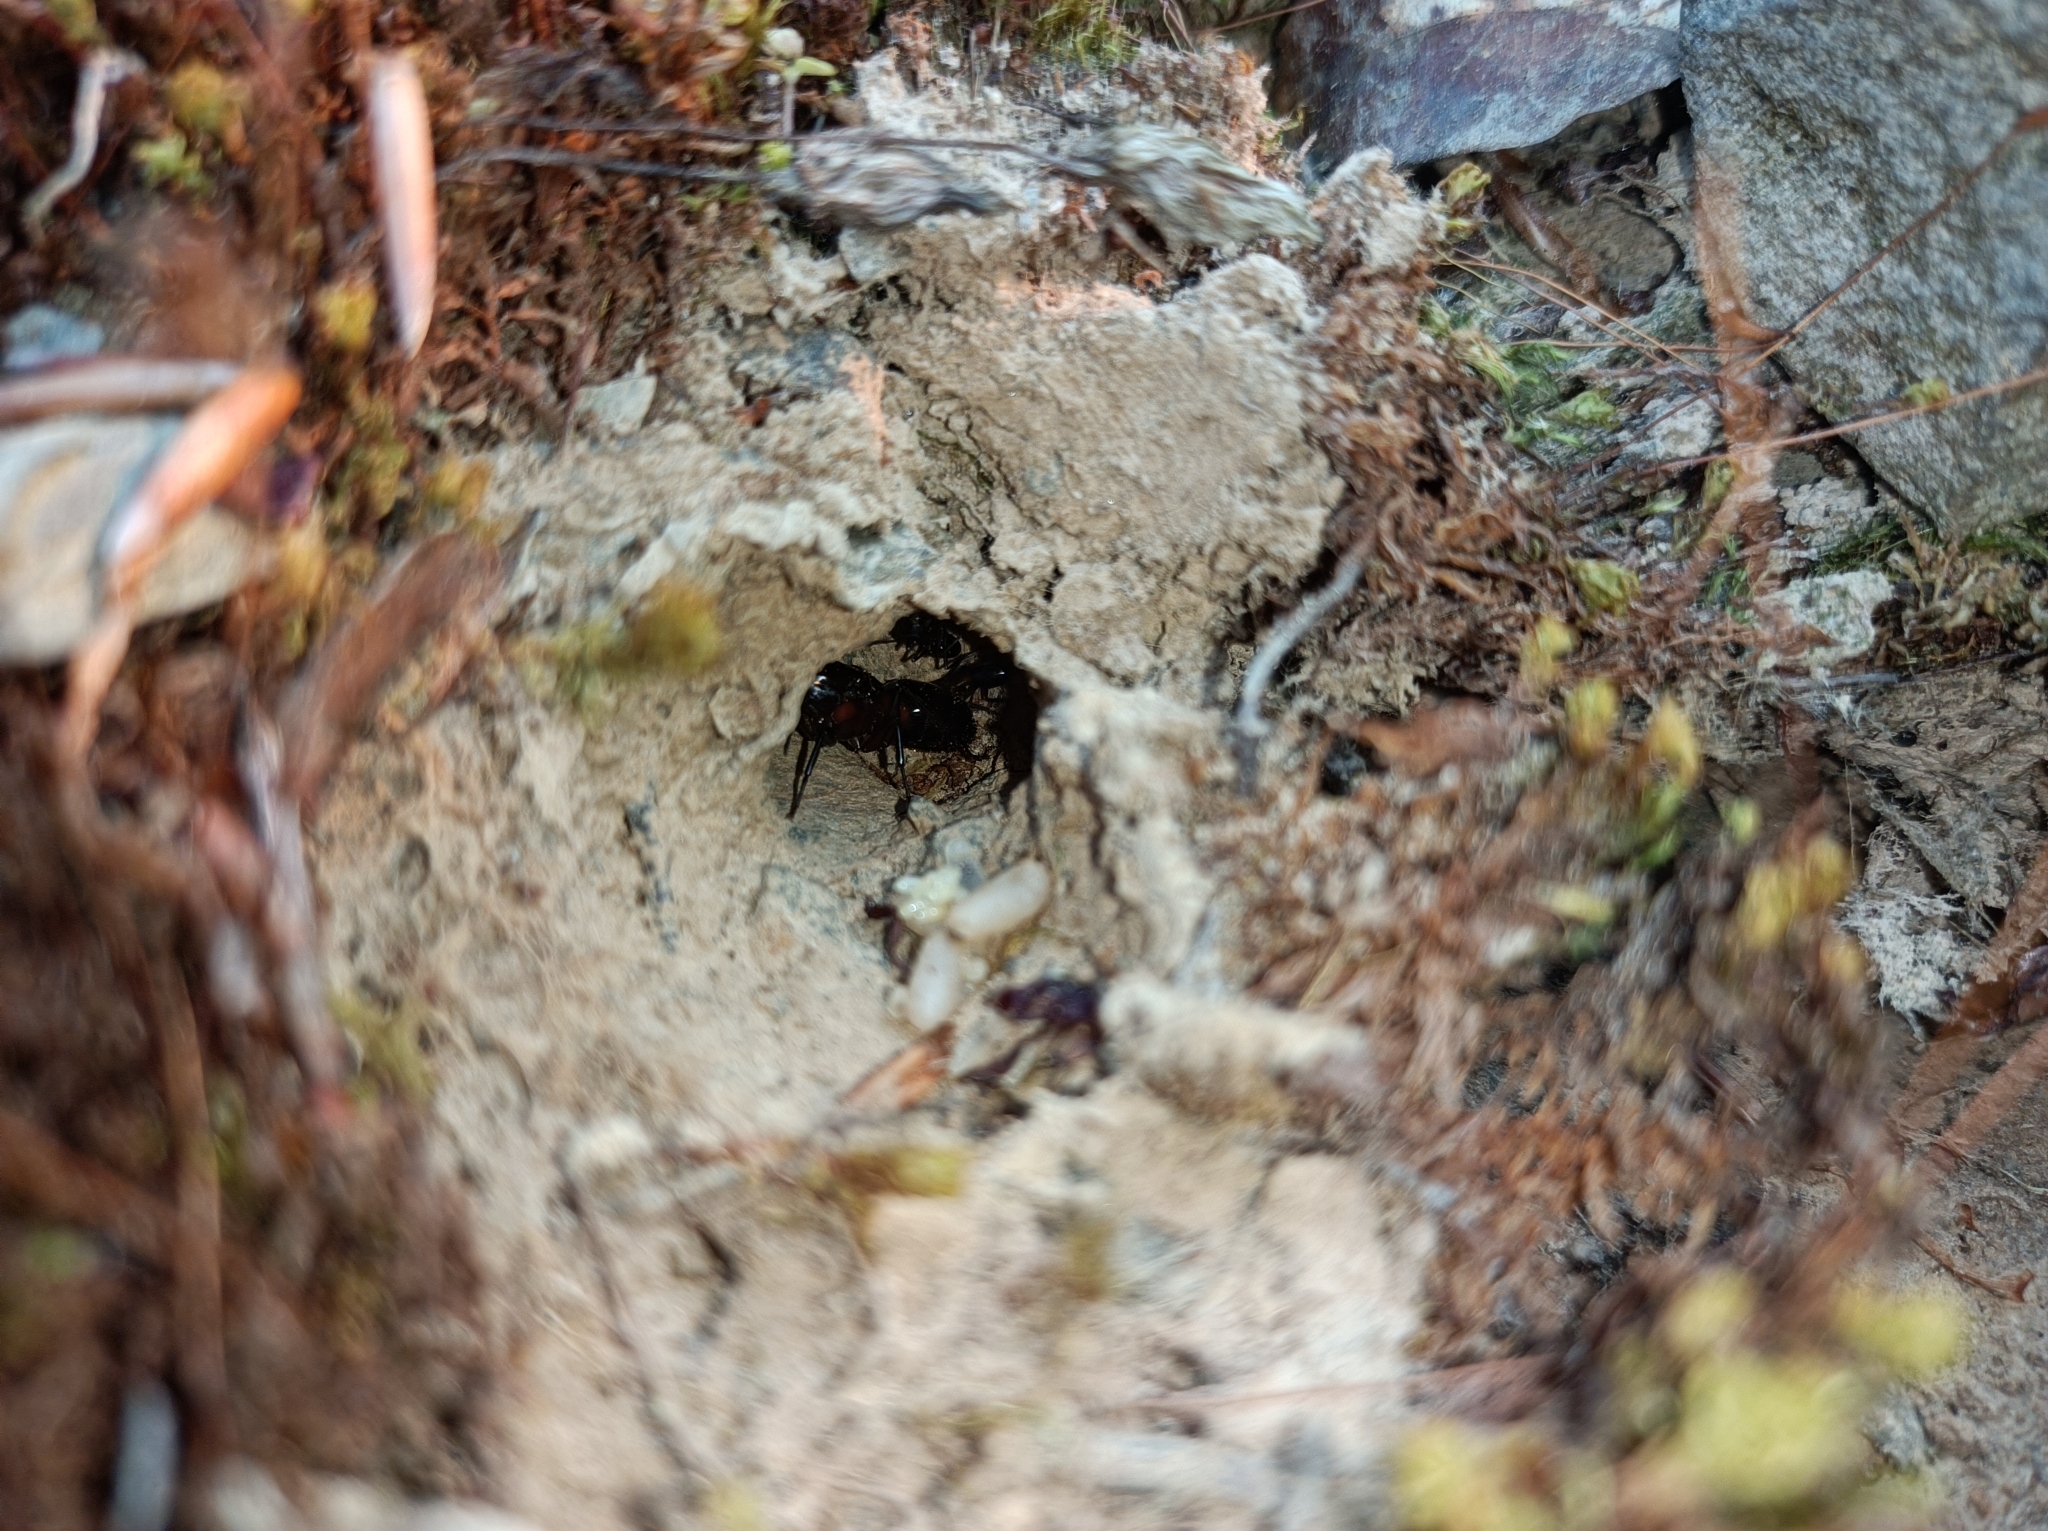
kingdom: Animalia
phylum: Arthropoda
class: Insecta
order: Hymenoptera
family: Formicidae
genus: Camponotus
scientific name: Camponotus ligniperdus
